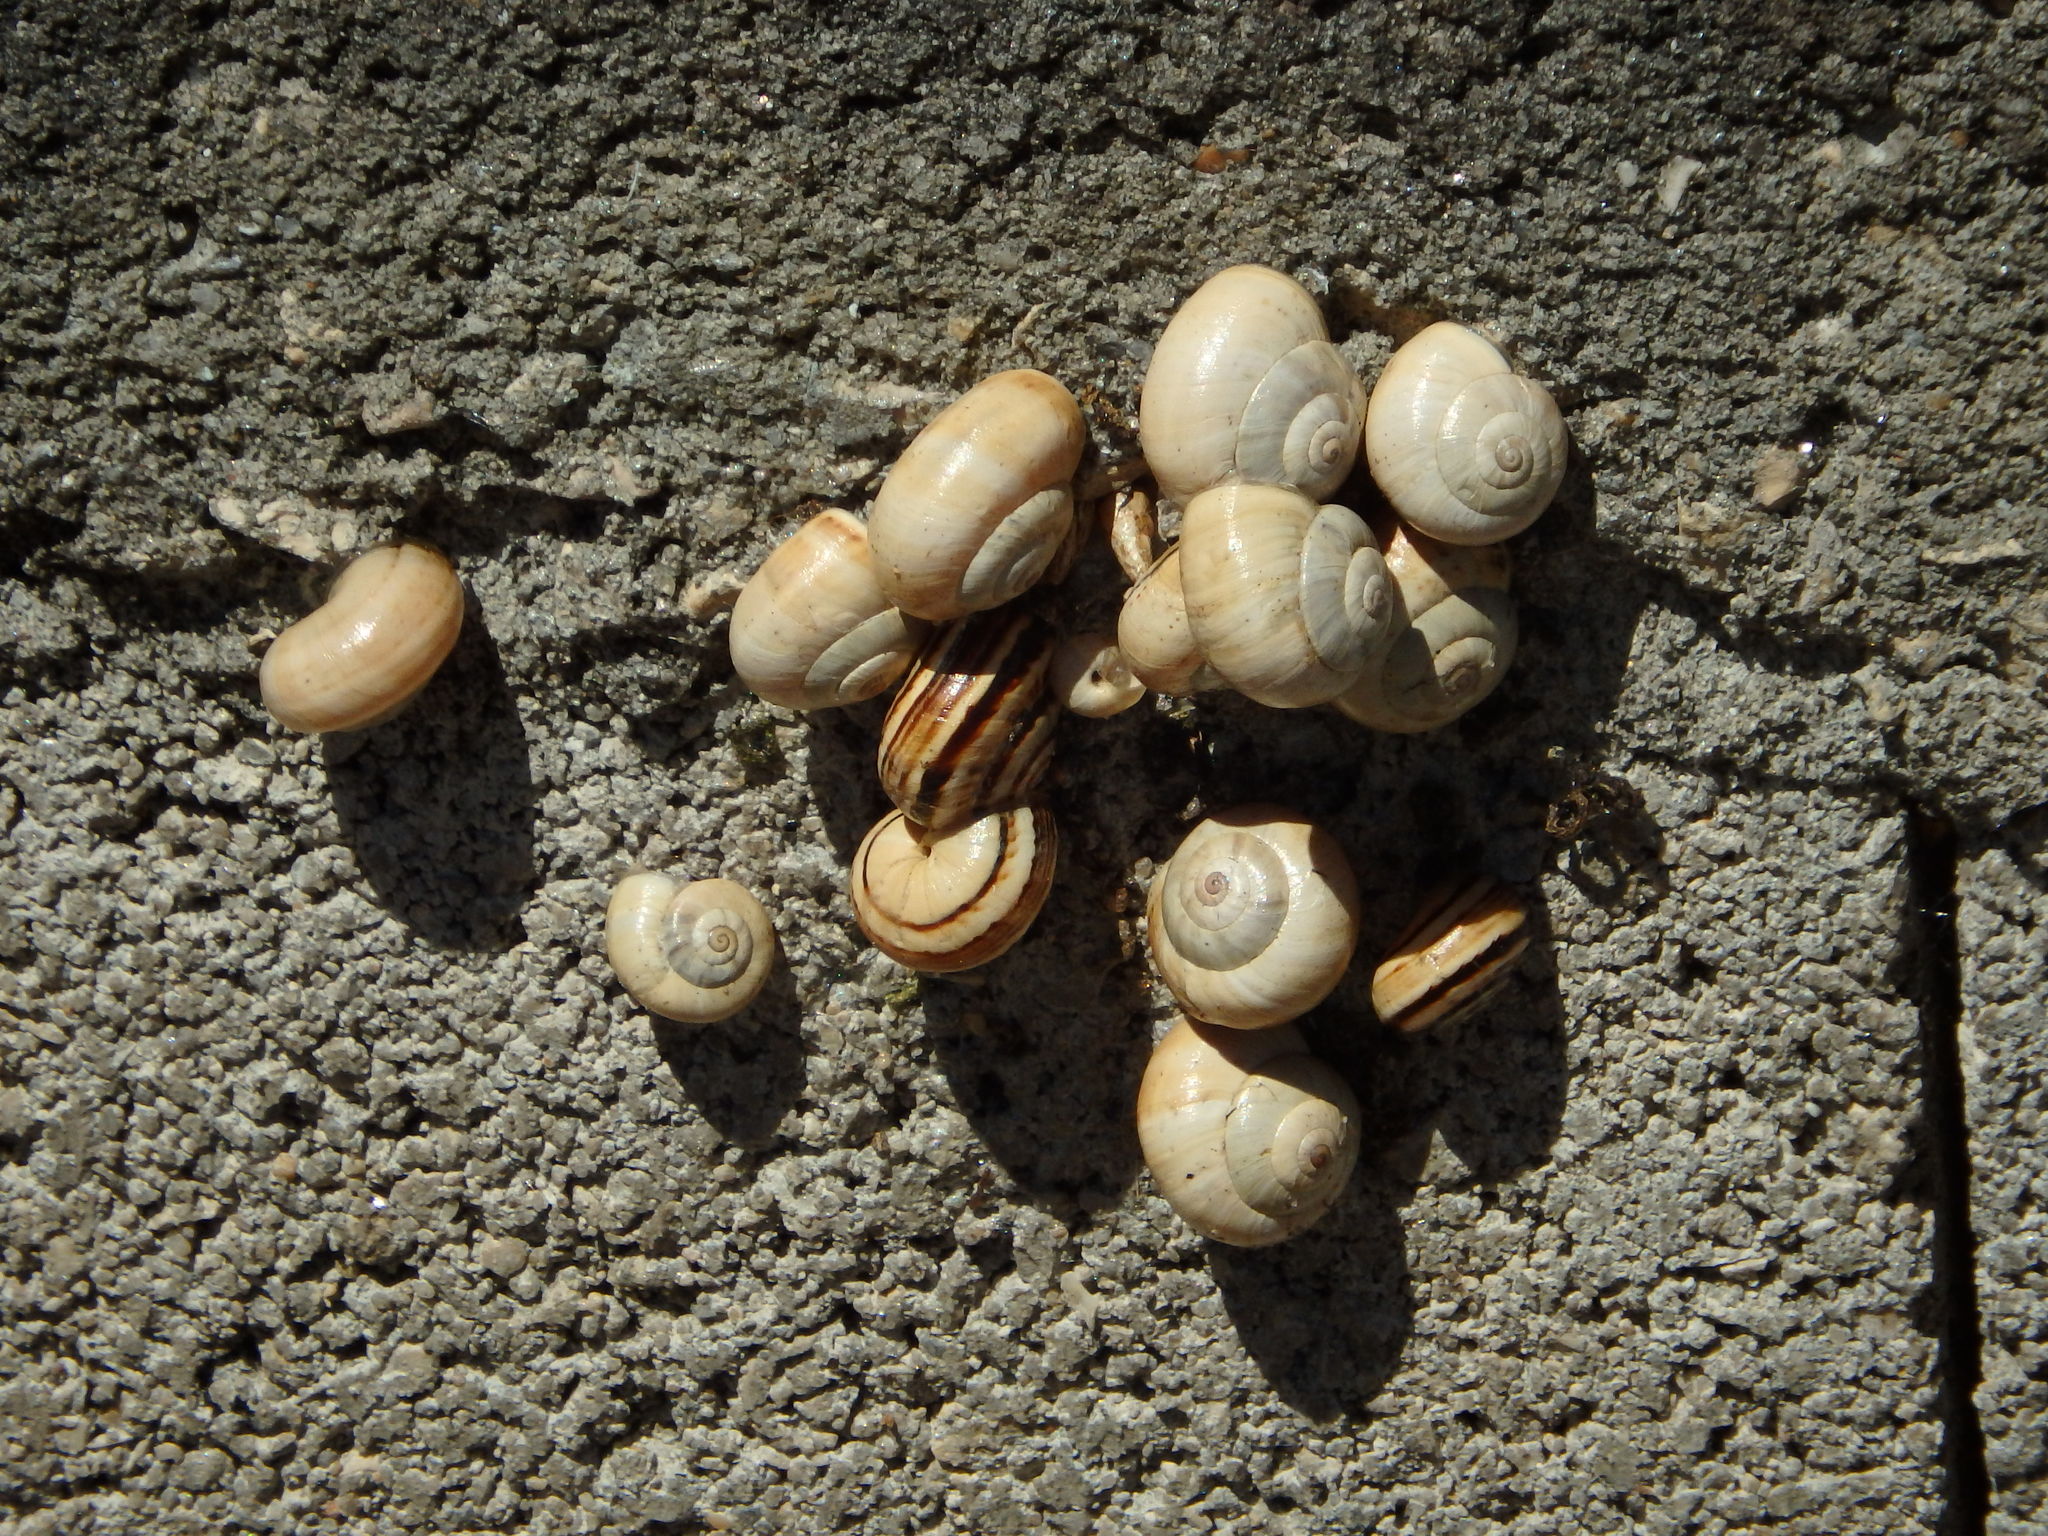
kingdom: Animalia
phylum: Mollusca
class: Gastropoda
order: Stylommatophora
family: Helicidae
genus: Theba
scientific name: Theba pisana
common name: White snail
